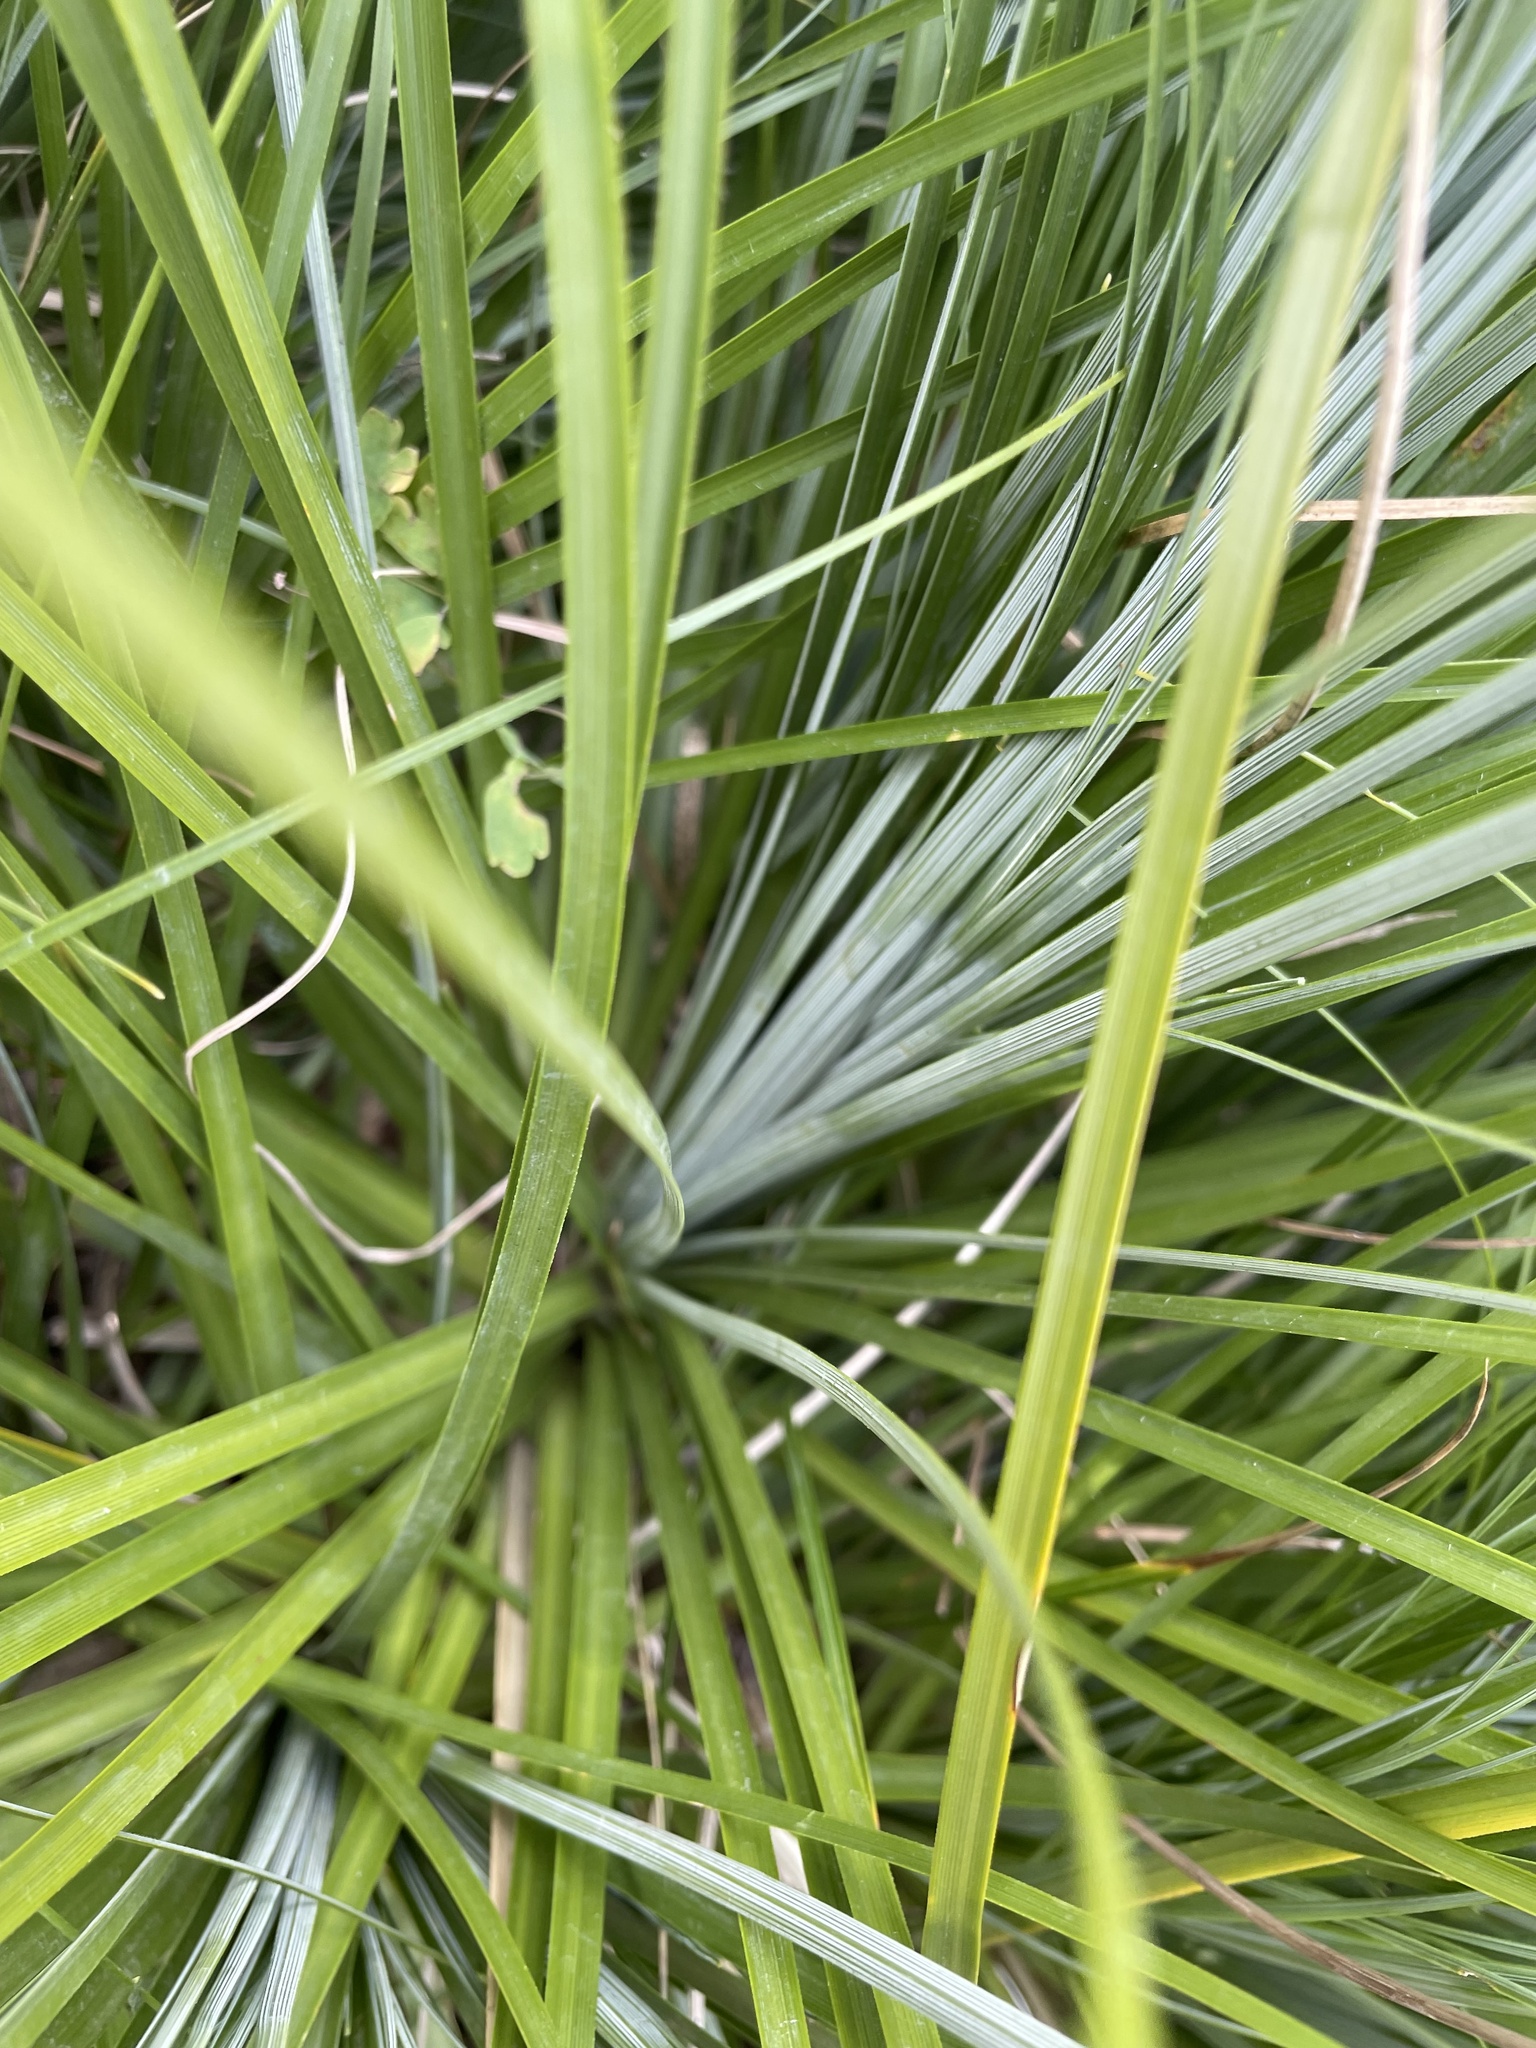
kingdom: Plantae
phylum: Tracheophyta
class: Liliopsida
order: Liliales
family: Melanthiaceae
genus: Xerophyllum
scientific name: Xerophyllum tenax
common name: Bear-grass
